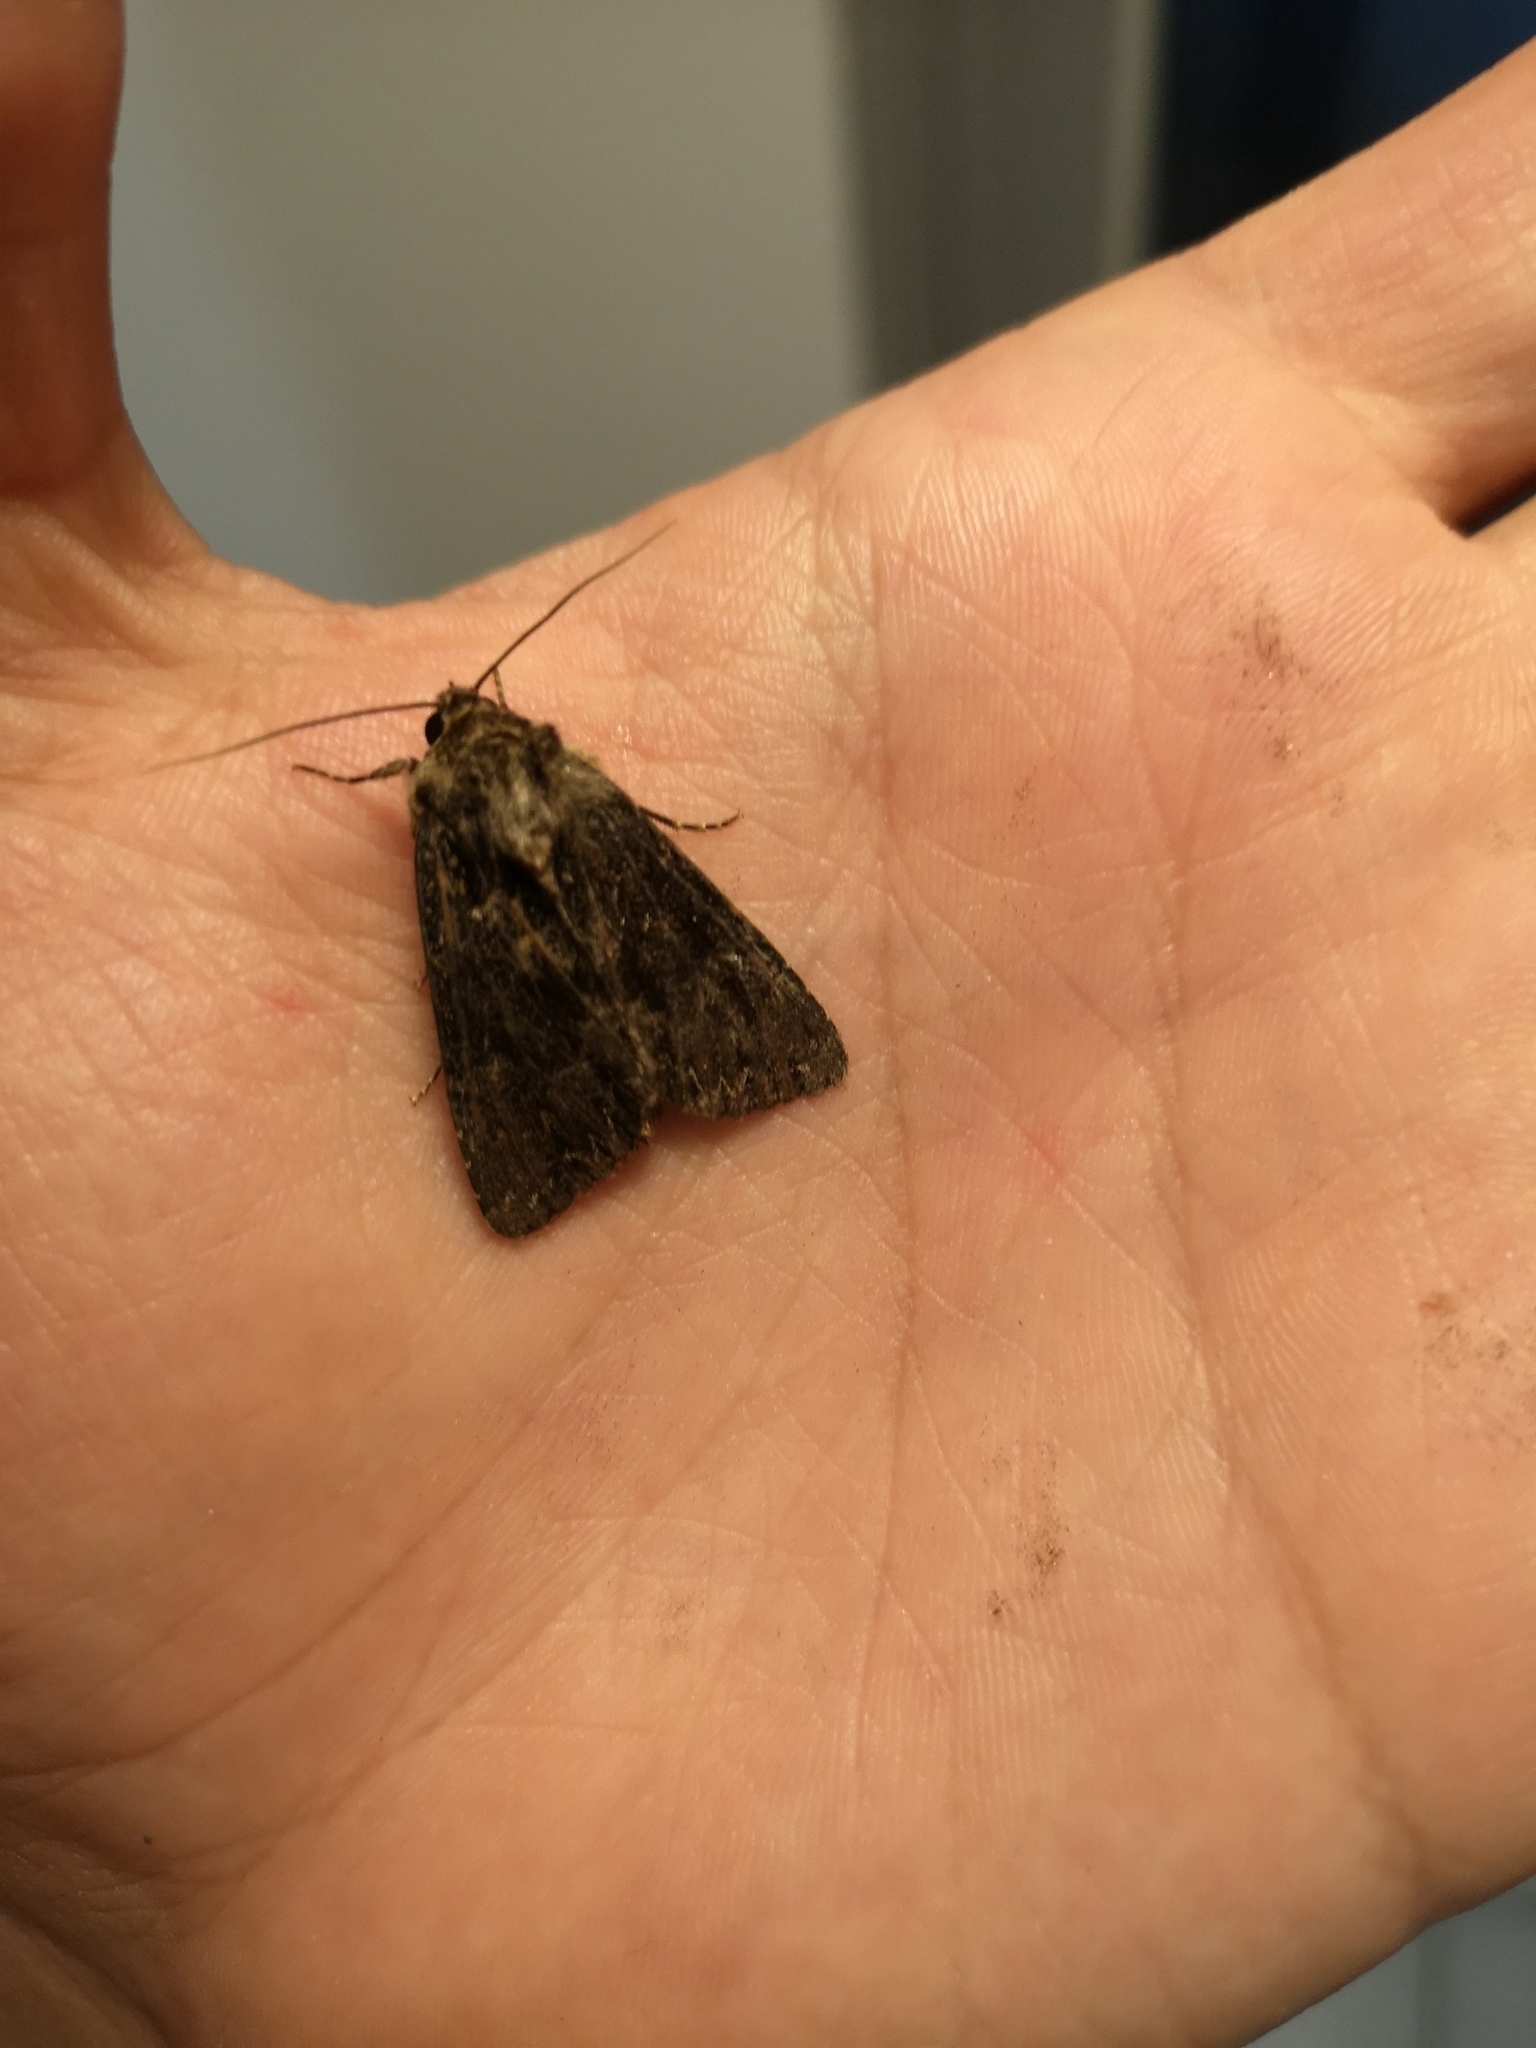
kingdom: Animalia
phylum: Arthropoda
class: Insecta
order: Lepidoptera
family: Noctuidae
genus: Apamea
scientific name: Apamea monoglypha
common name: Dark arches
